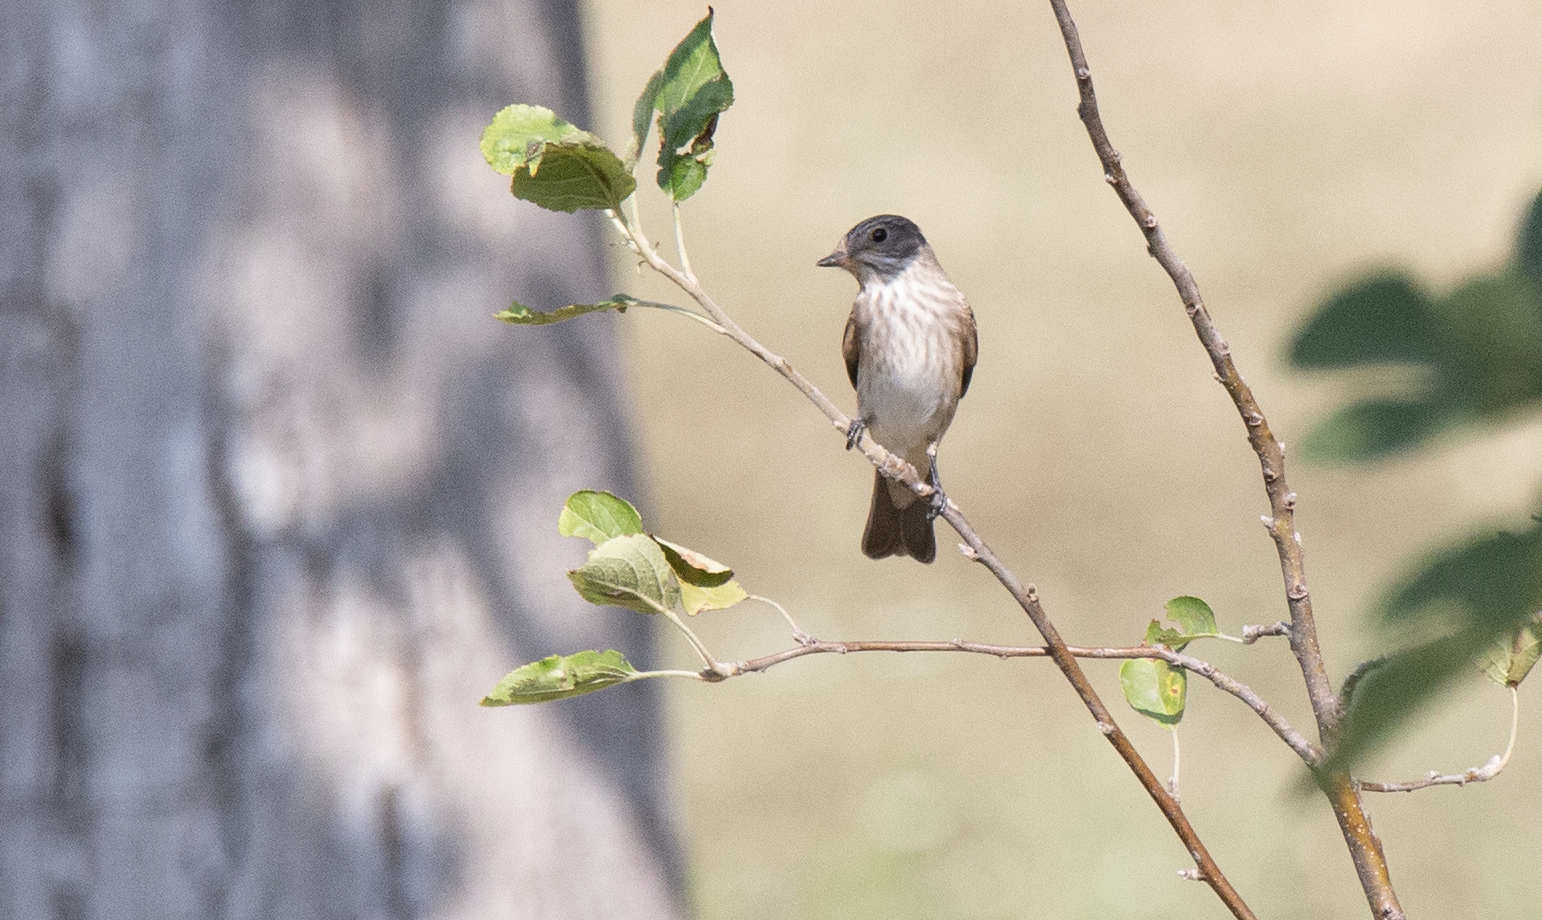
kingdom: Animalia
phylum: Chordata
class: Aves
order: Passeriformes
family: Muscicapidae
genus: Muscicapa
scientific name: Muscicapa striata
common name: Spotted flycatcher
